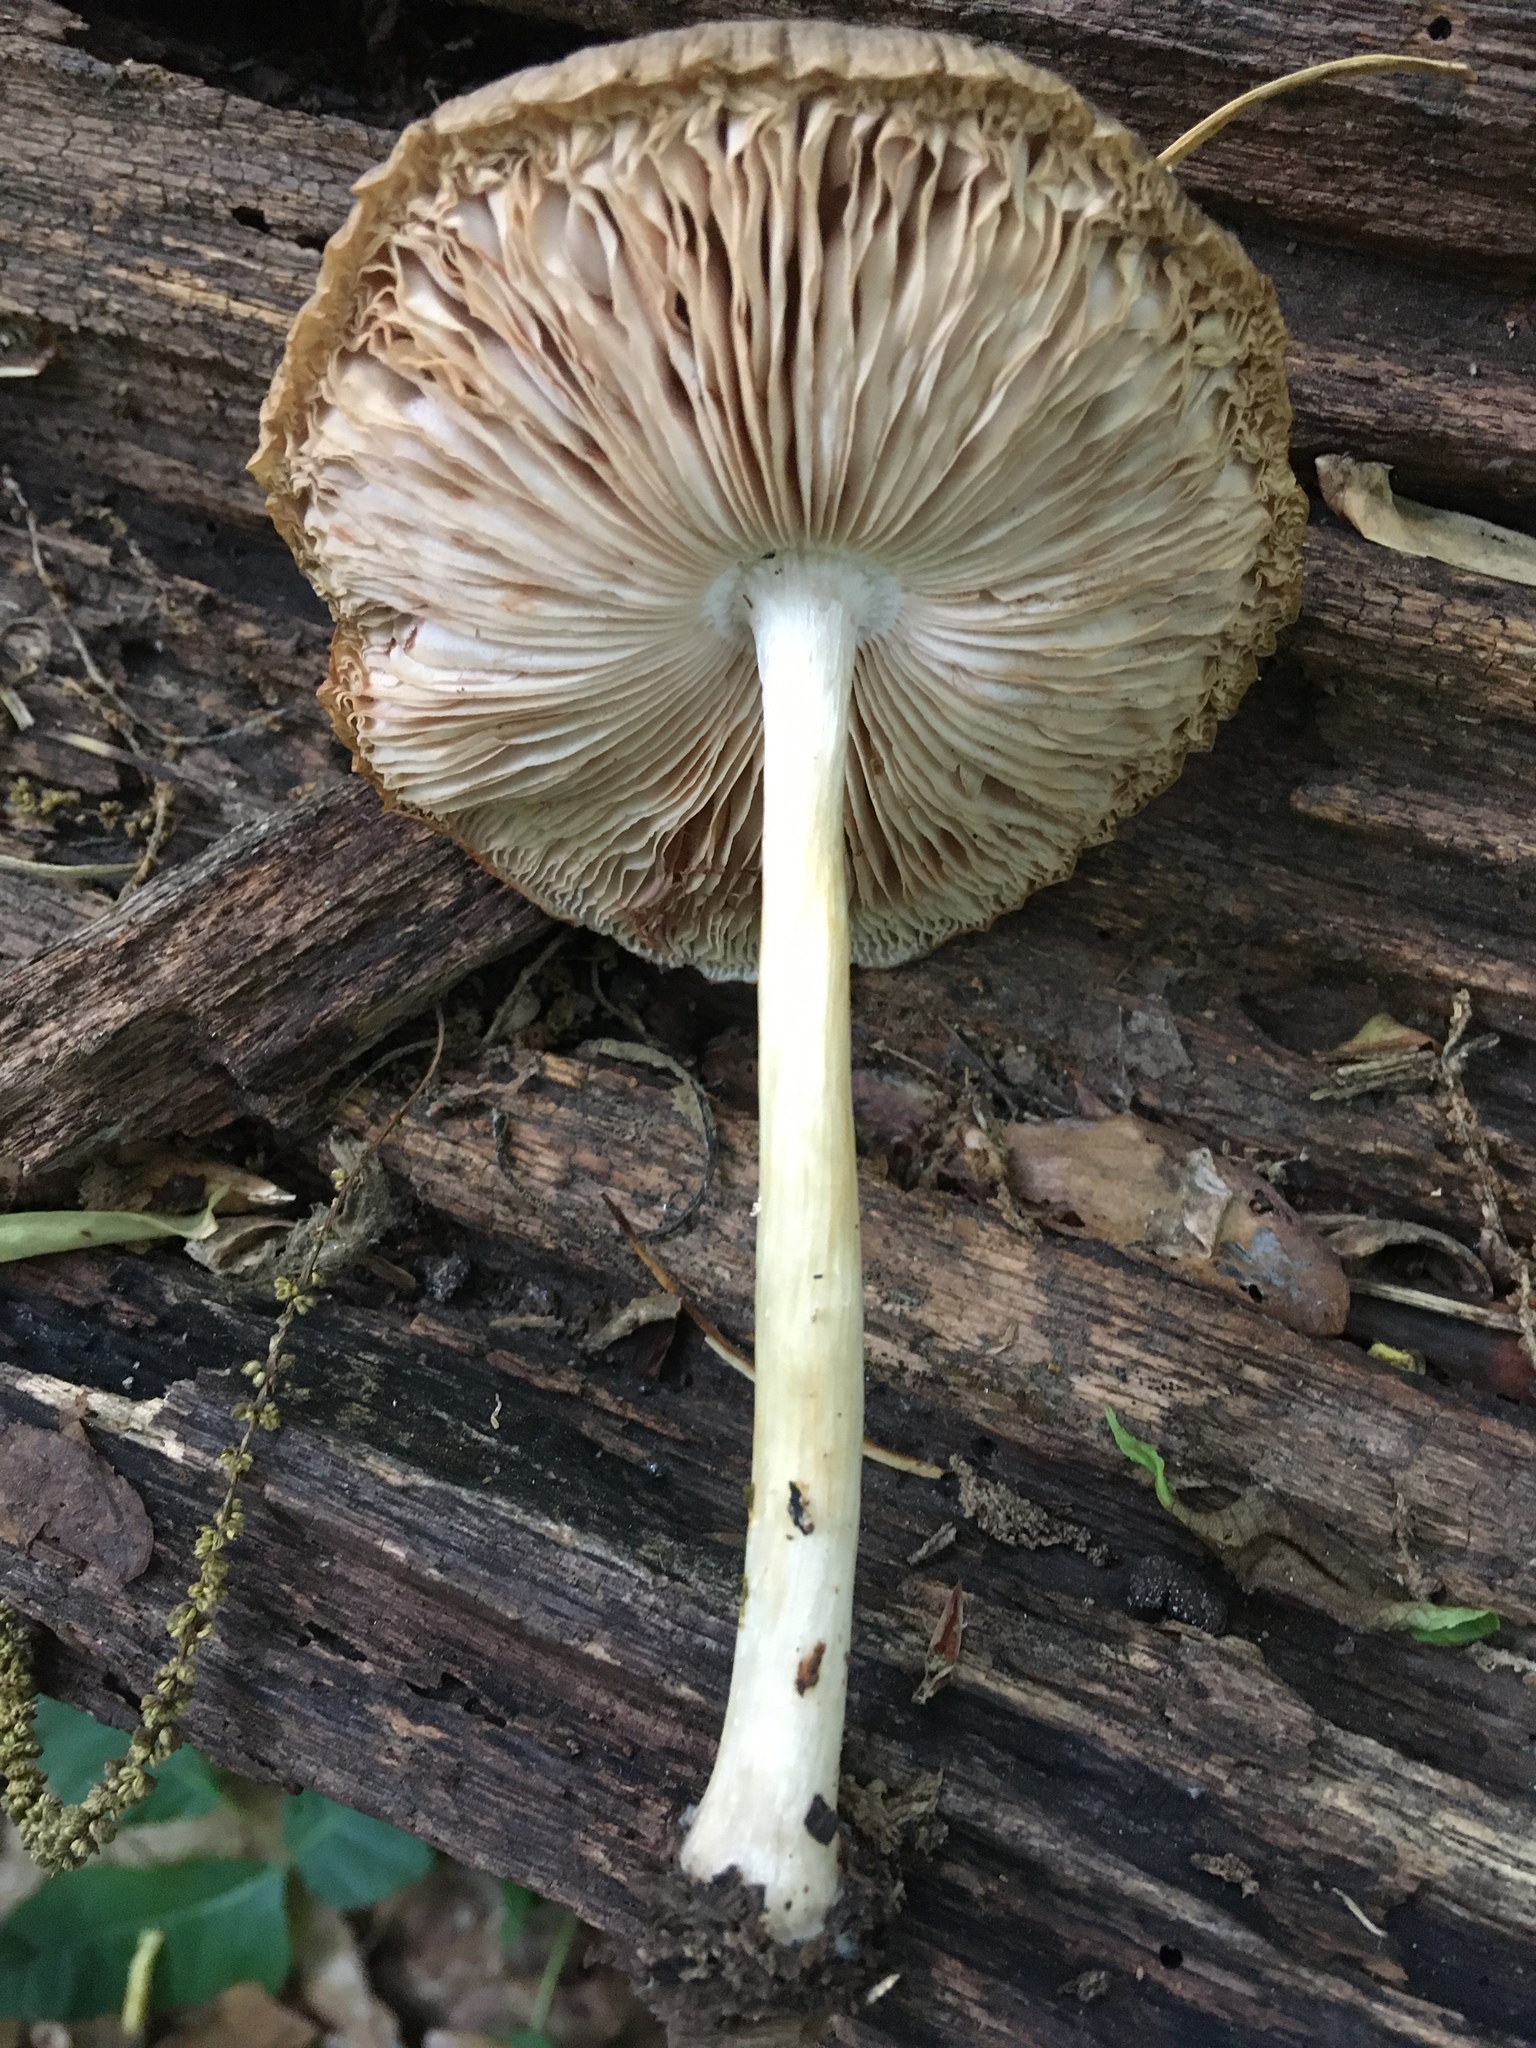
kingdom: Fungi
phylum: Basidiomycota
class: Agaricomycetes
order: Agaricales
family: Pluteaceae
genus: Pluteus
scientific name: Pluteus petasatus
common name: Scaly shield
